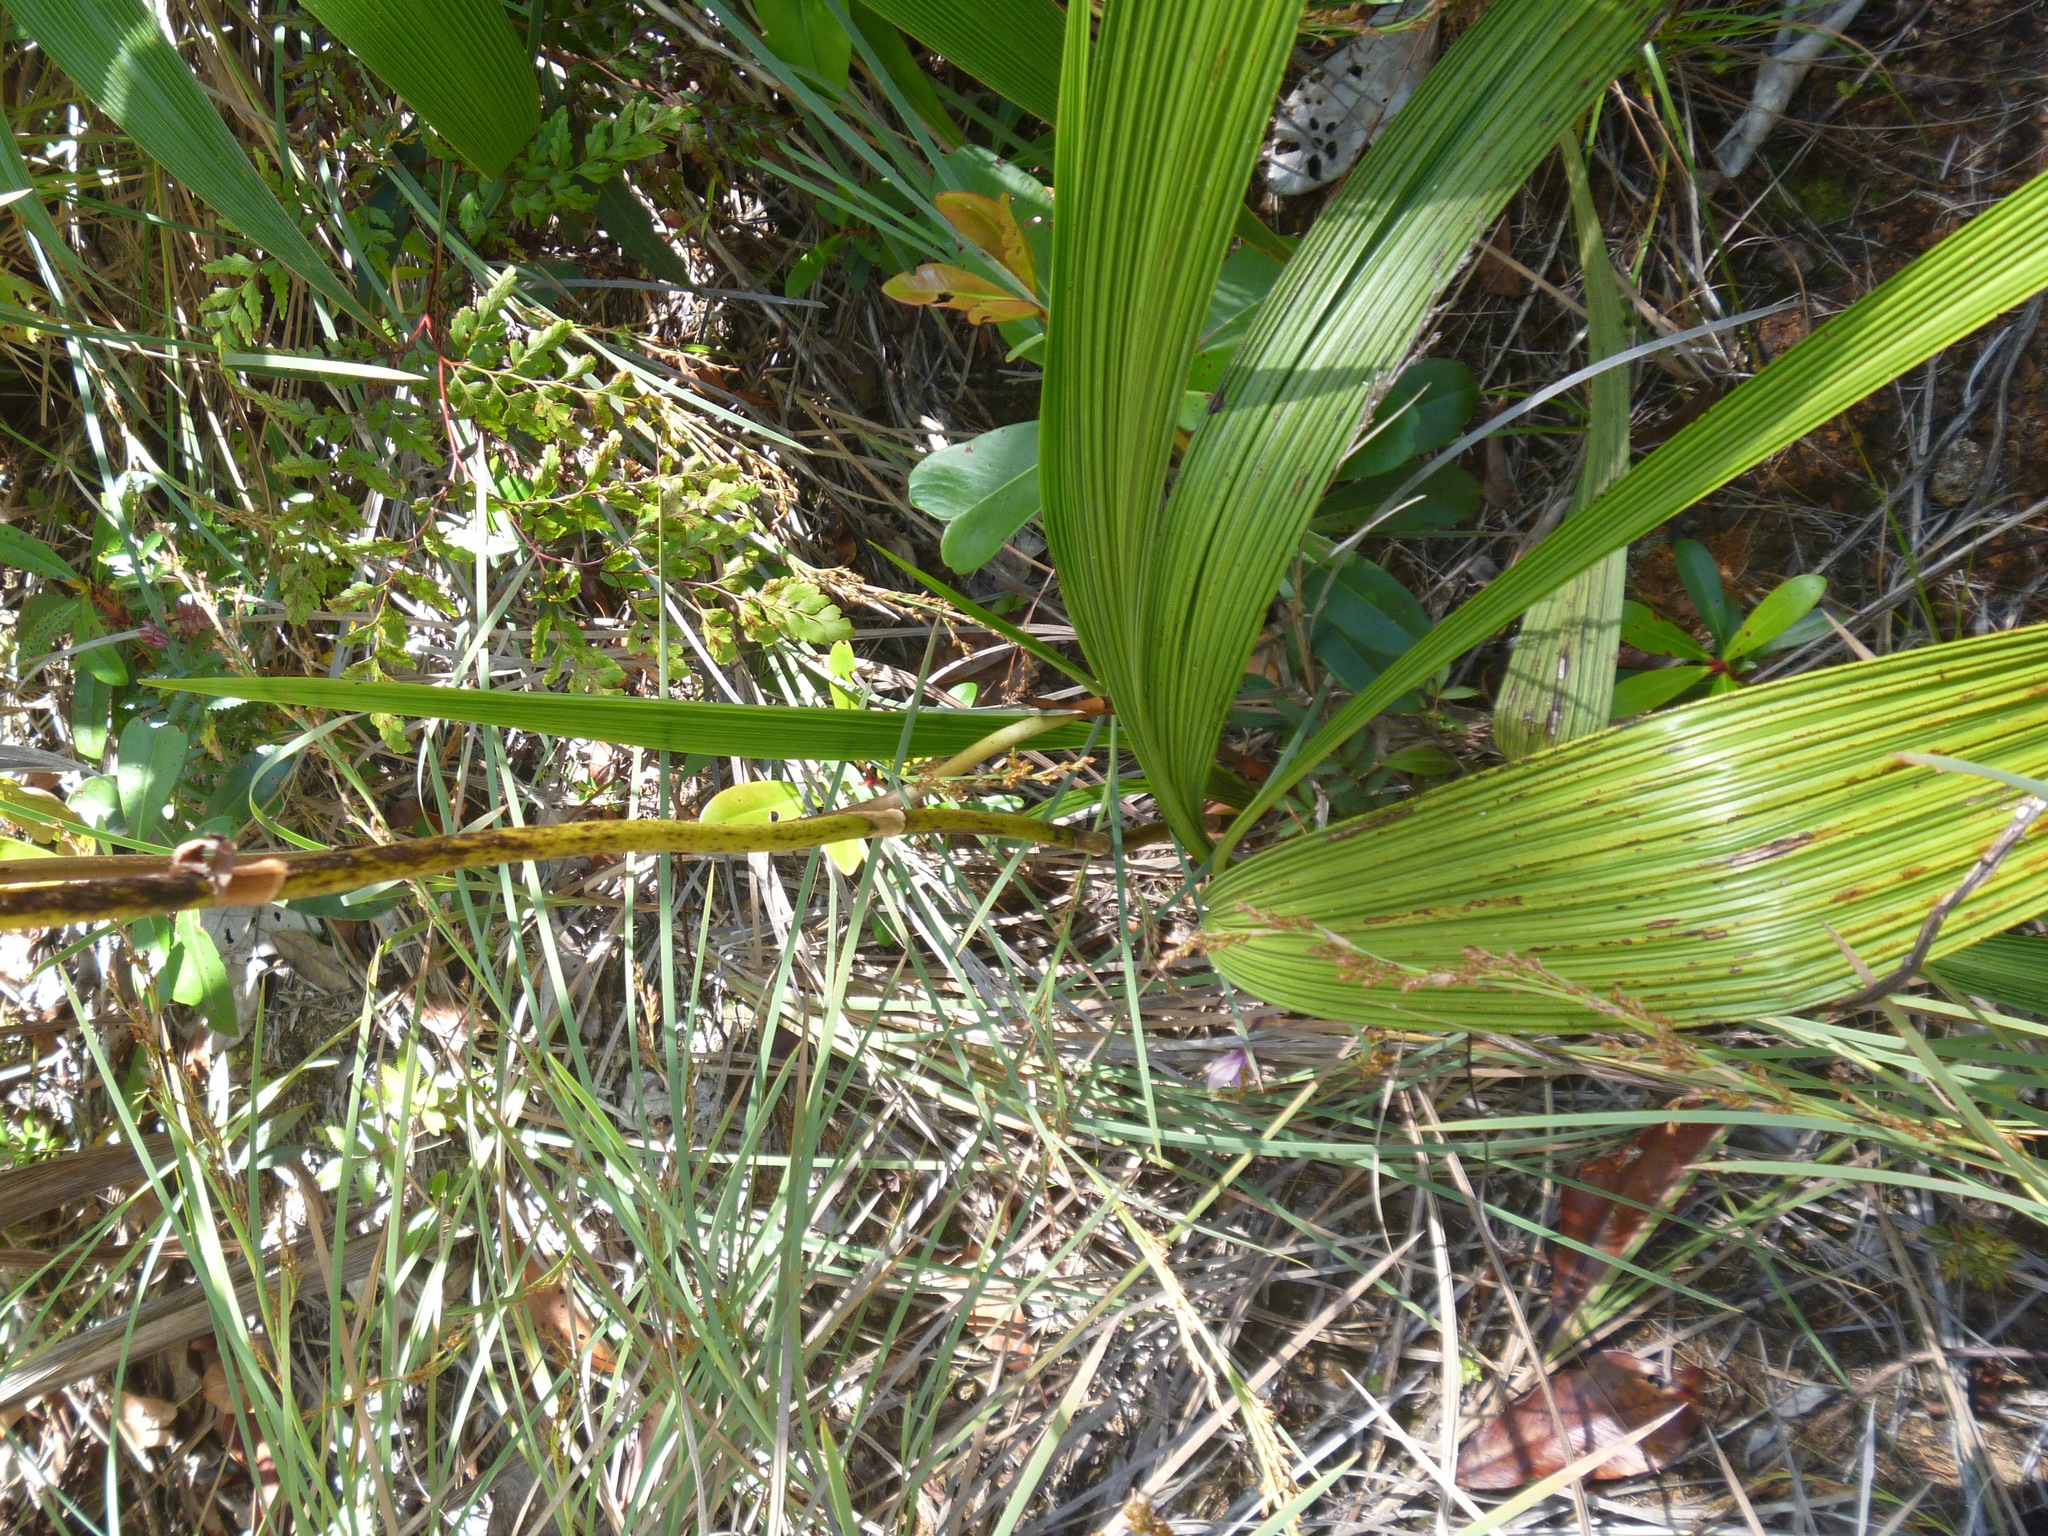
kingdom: Plantae
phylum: Tracheophyta
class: Liliopsida
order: Asparagales
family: Orchidaceae
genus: Spathoglottis
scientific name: Spathoglottis plicata
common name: Philippine ground orchid
